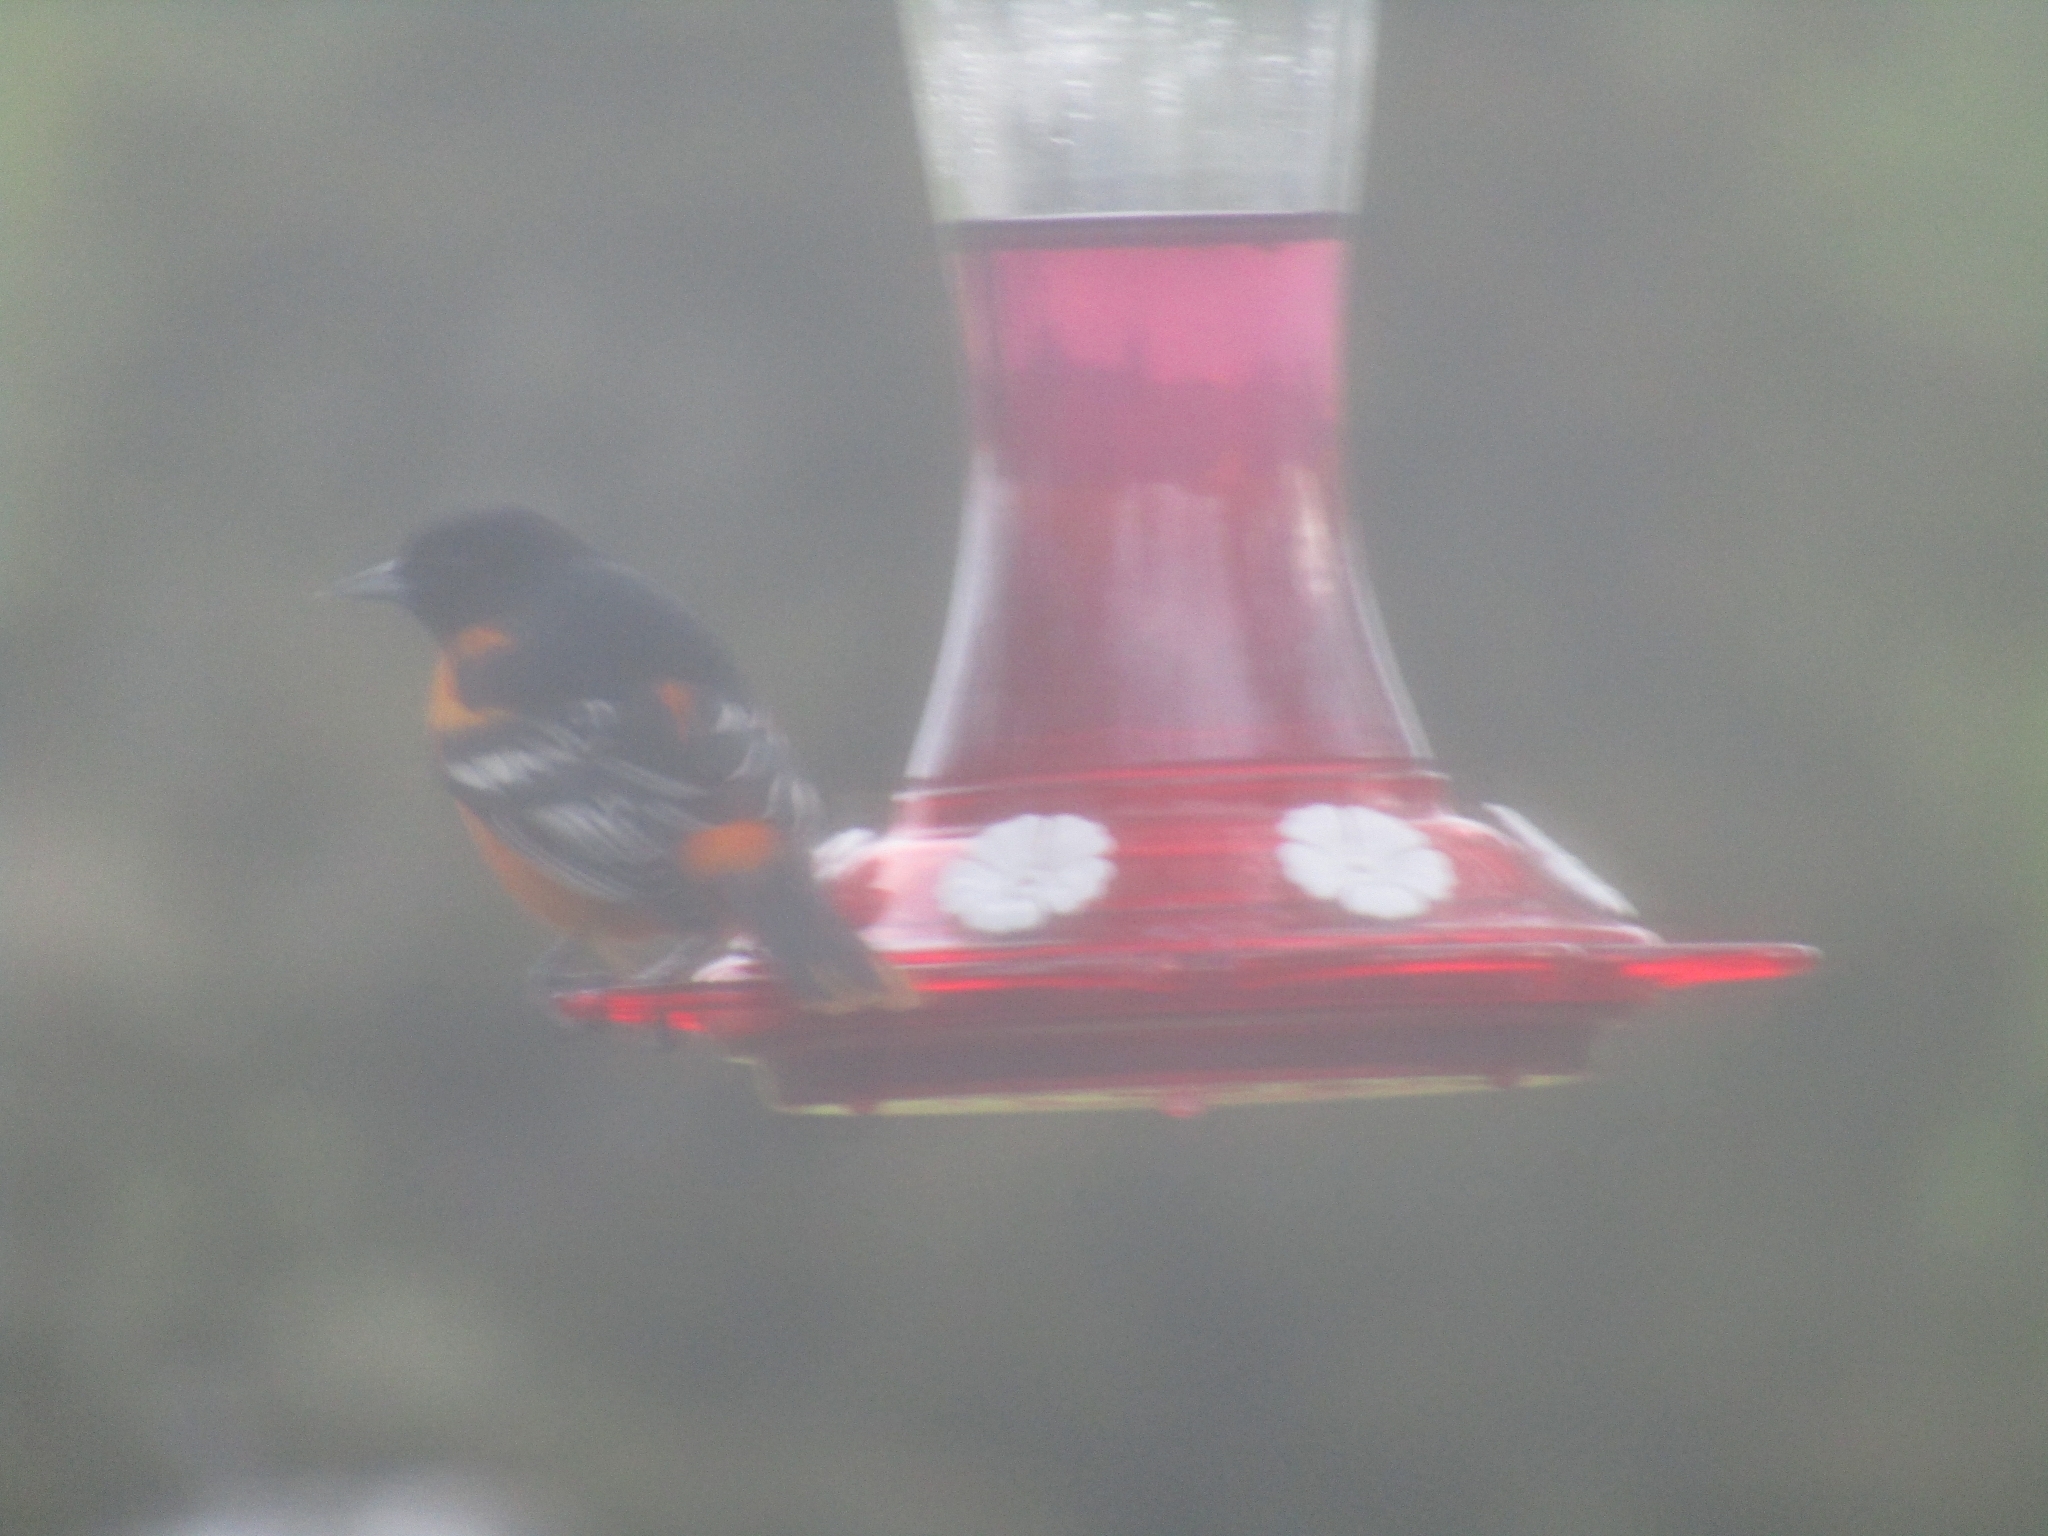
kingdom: Animalia
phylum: Chordata
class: Aves
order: Passeriformes
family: Icteridae
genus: Icterus
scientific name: Icterus galbula
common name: Baltimore oriole
